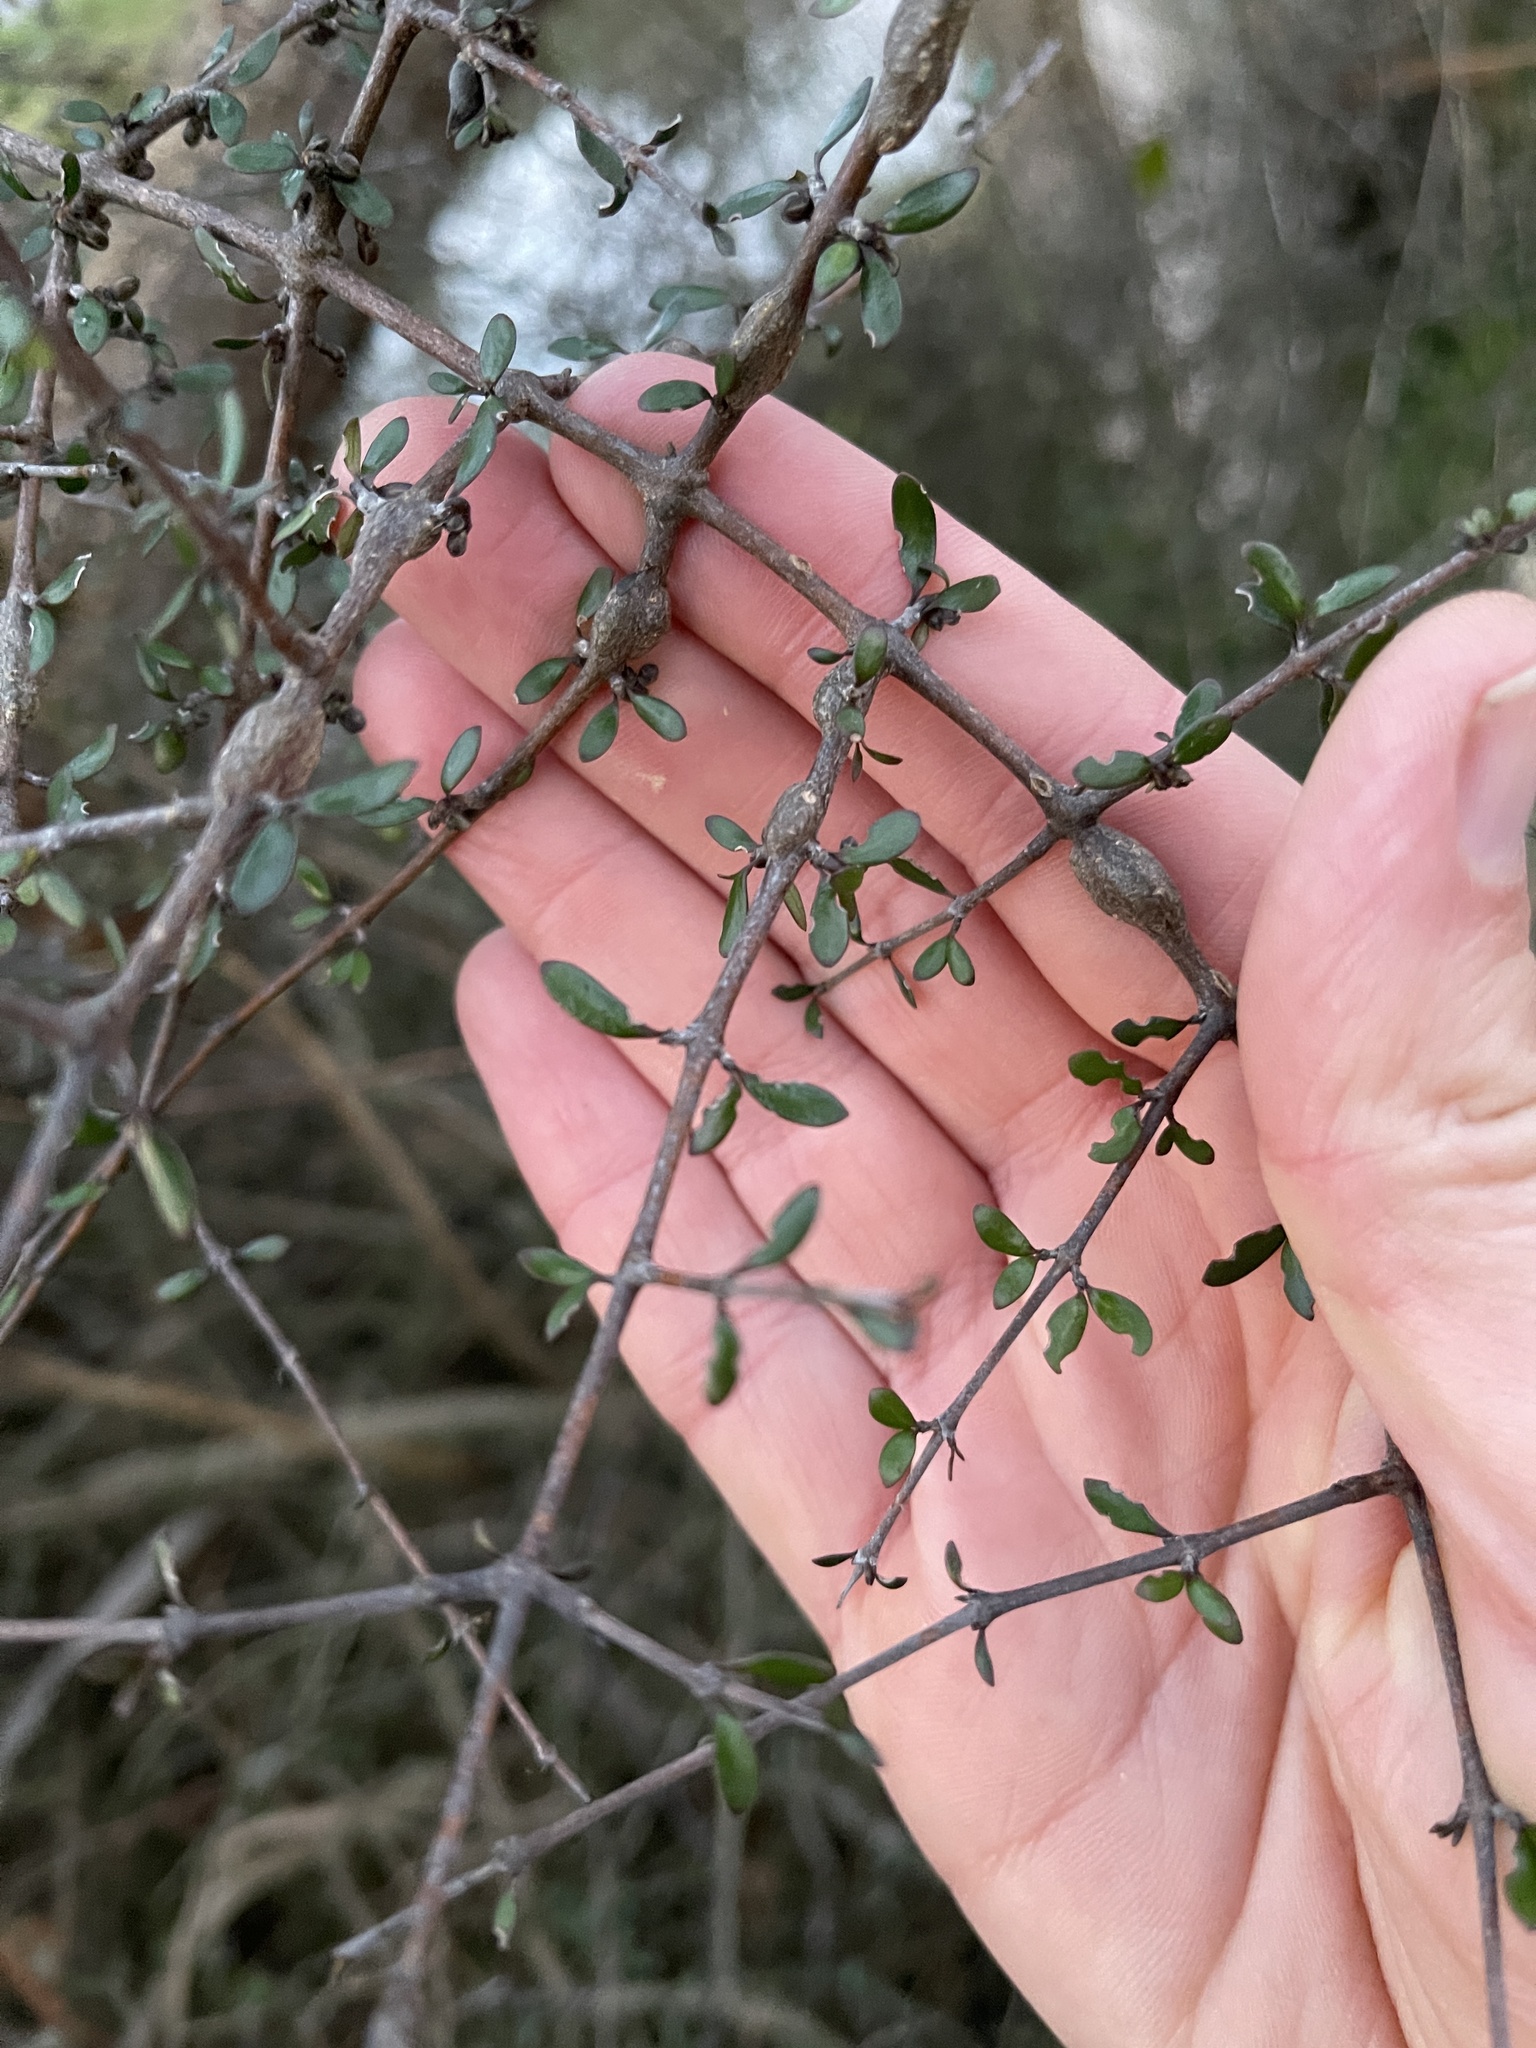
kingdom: Plantae
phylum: Tracheophyta
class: Magnoliopsida
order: Gentianales
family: Rubiaceae
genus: Coprosma
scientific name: Coprosma propinqua
